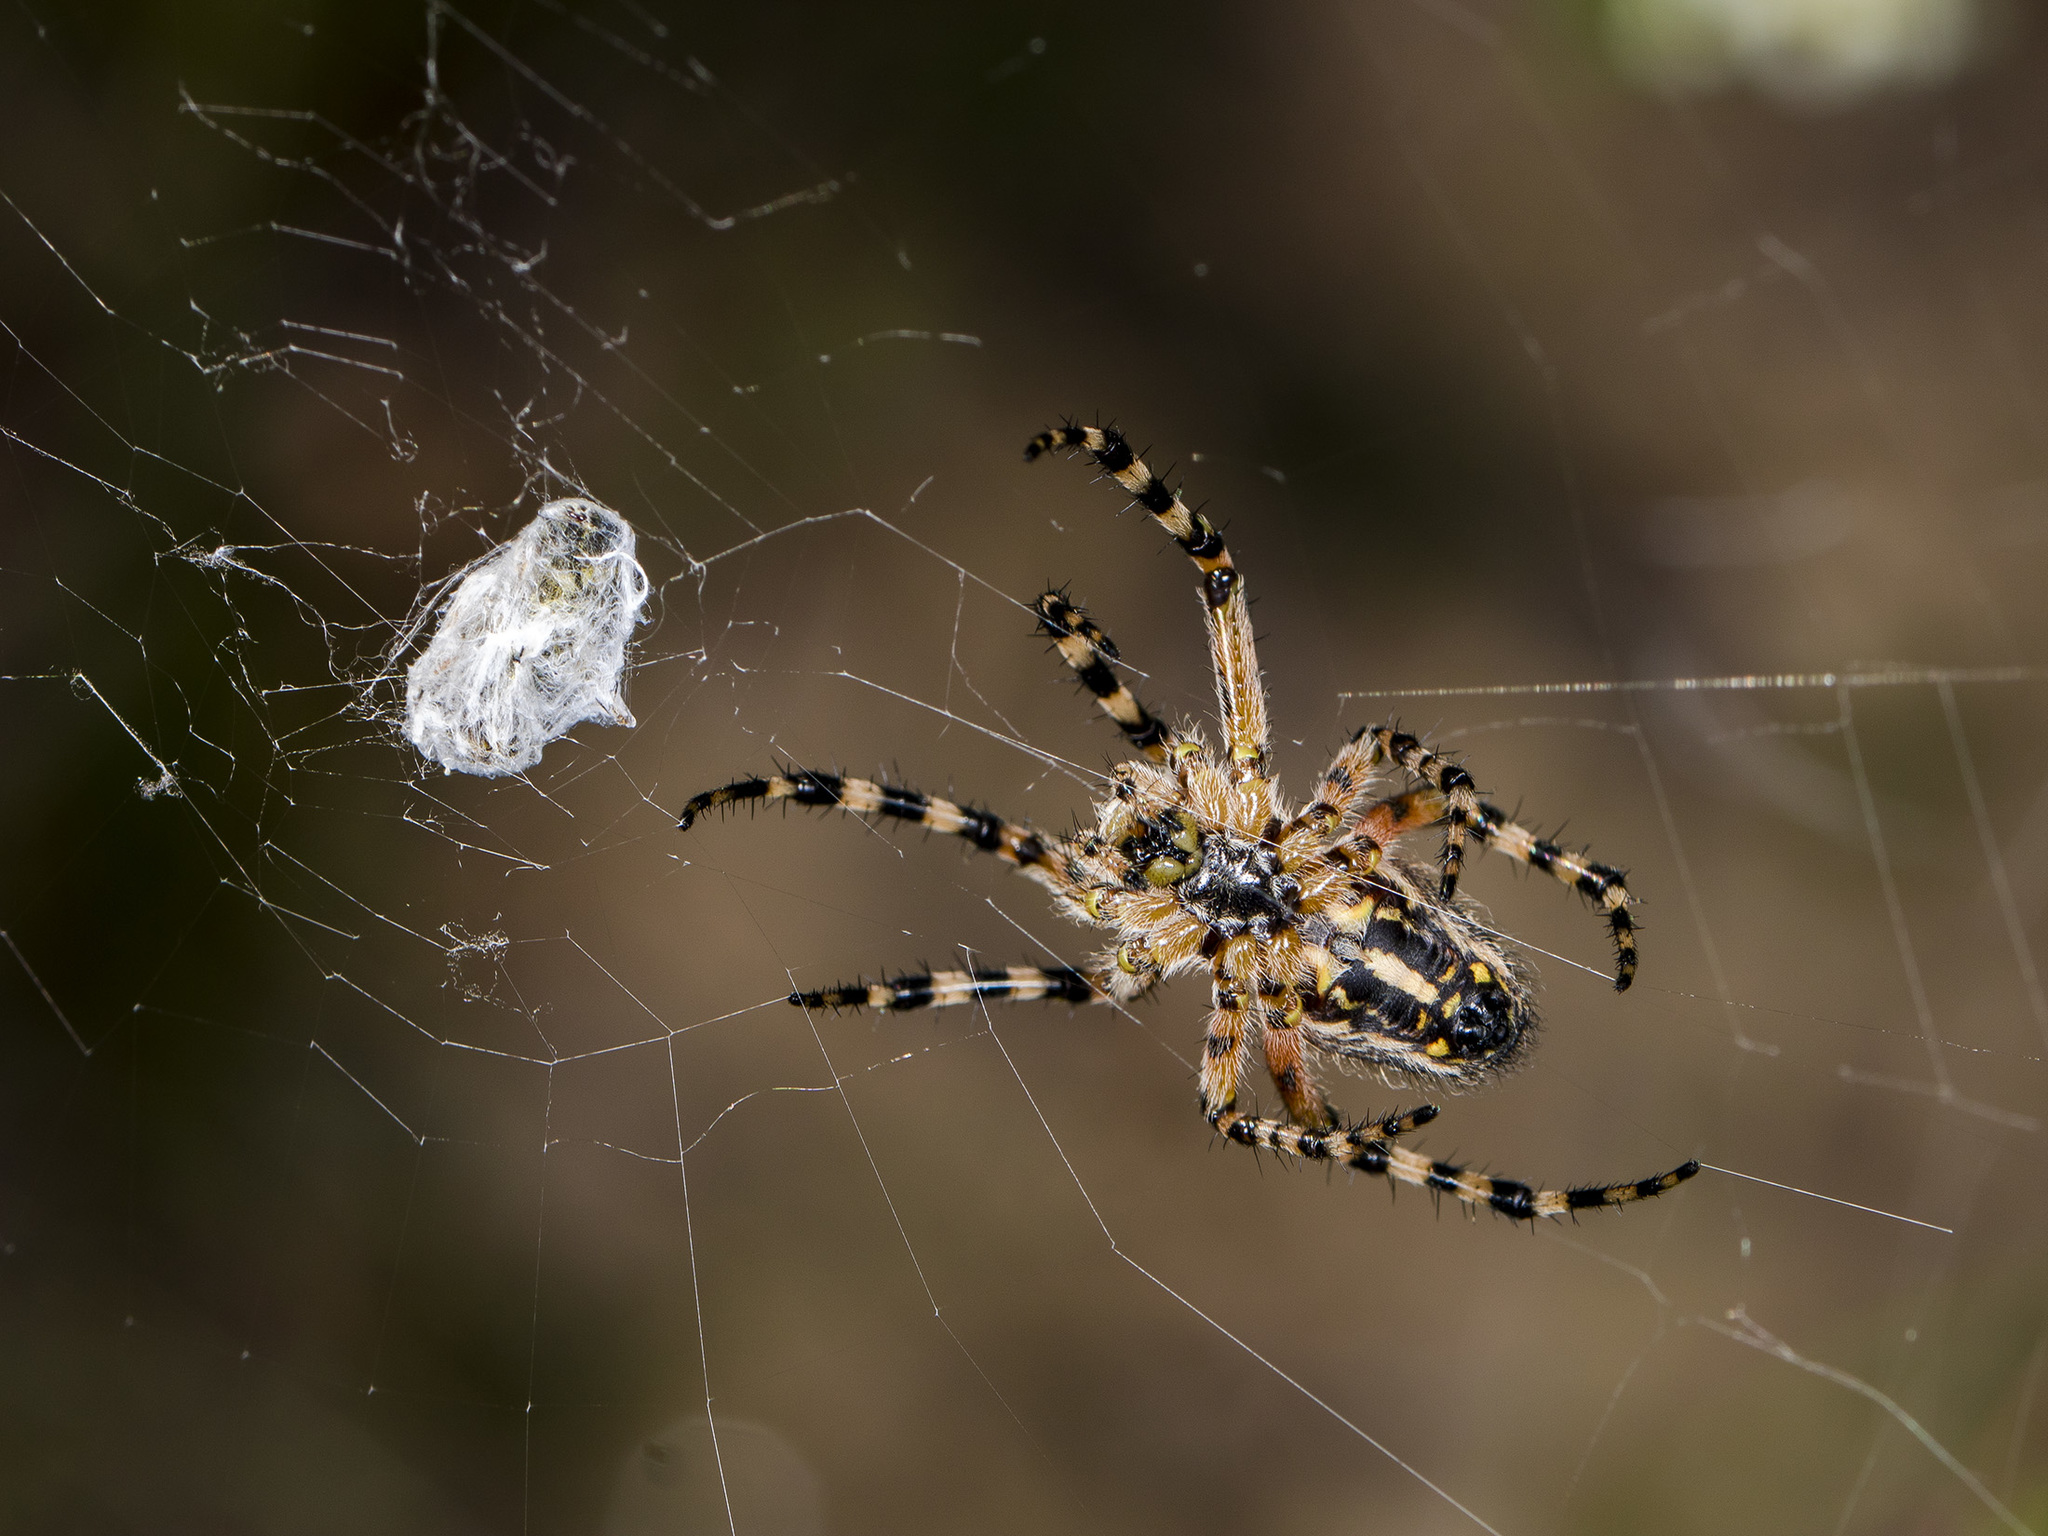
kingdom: Animalia
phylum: Arthropoda
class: Arachnida
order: Araneae
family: Araneidae
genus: Aculepeira
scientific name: Aculepeira armida
